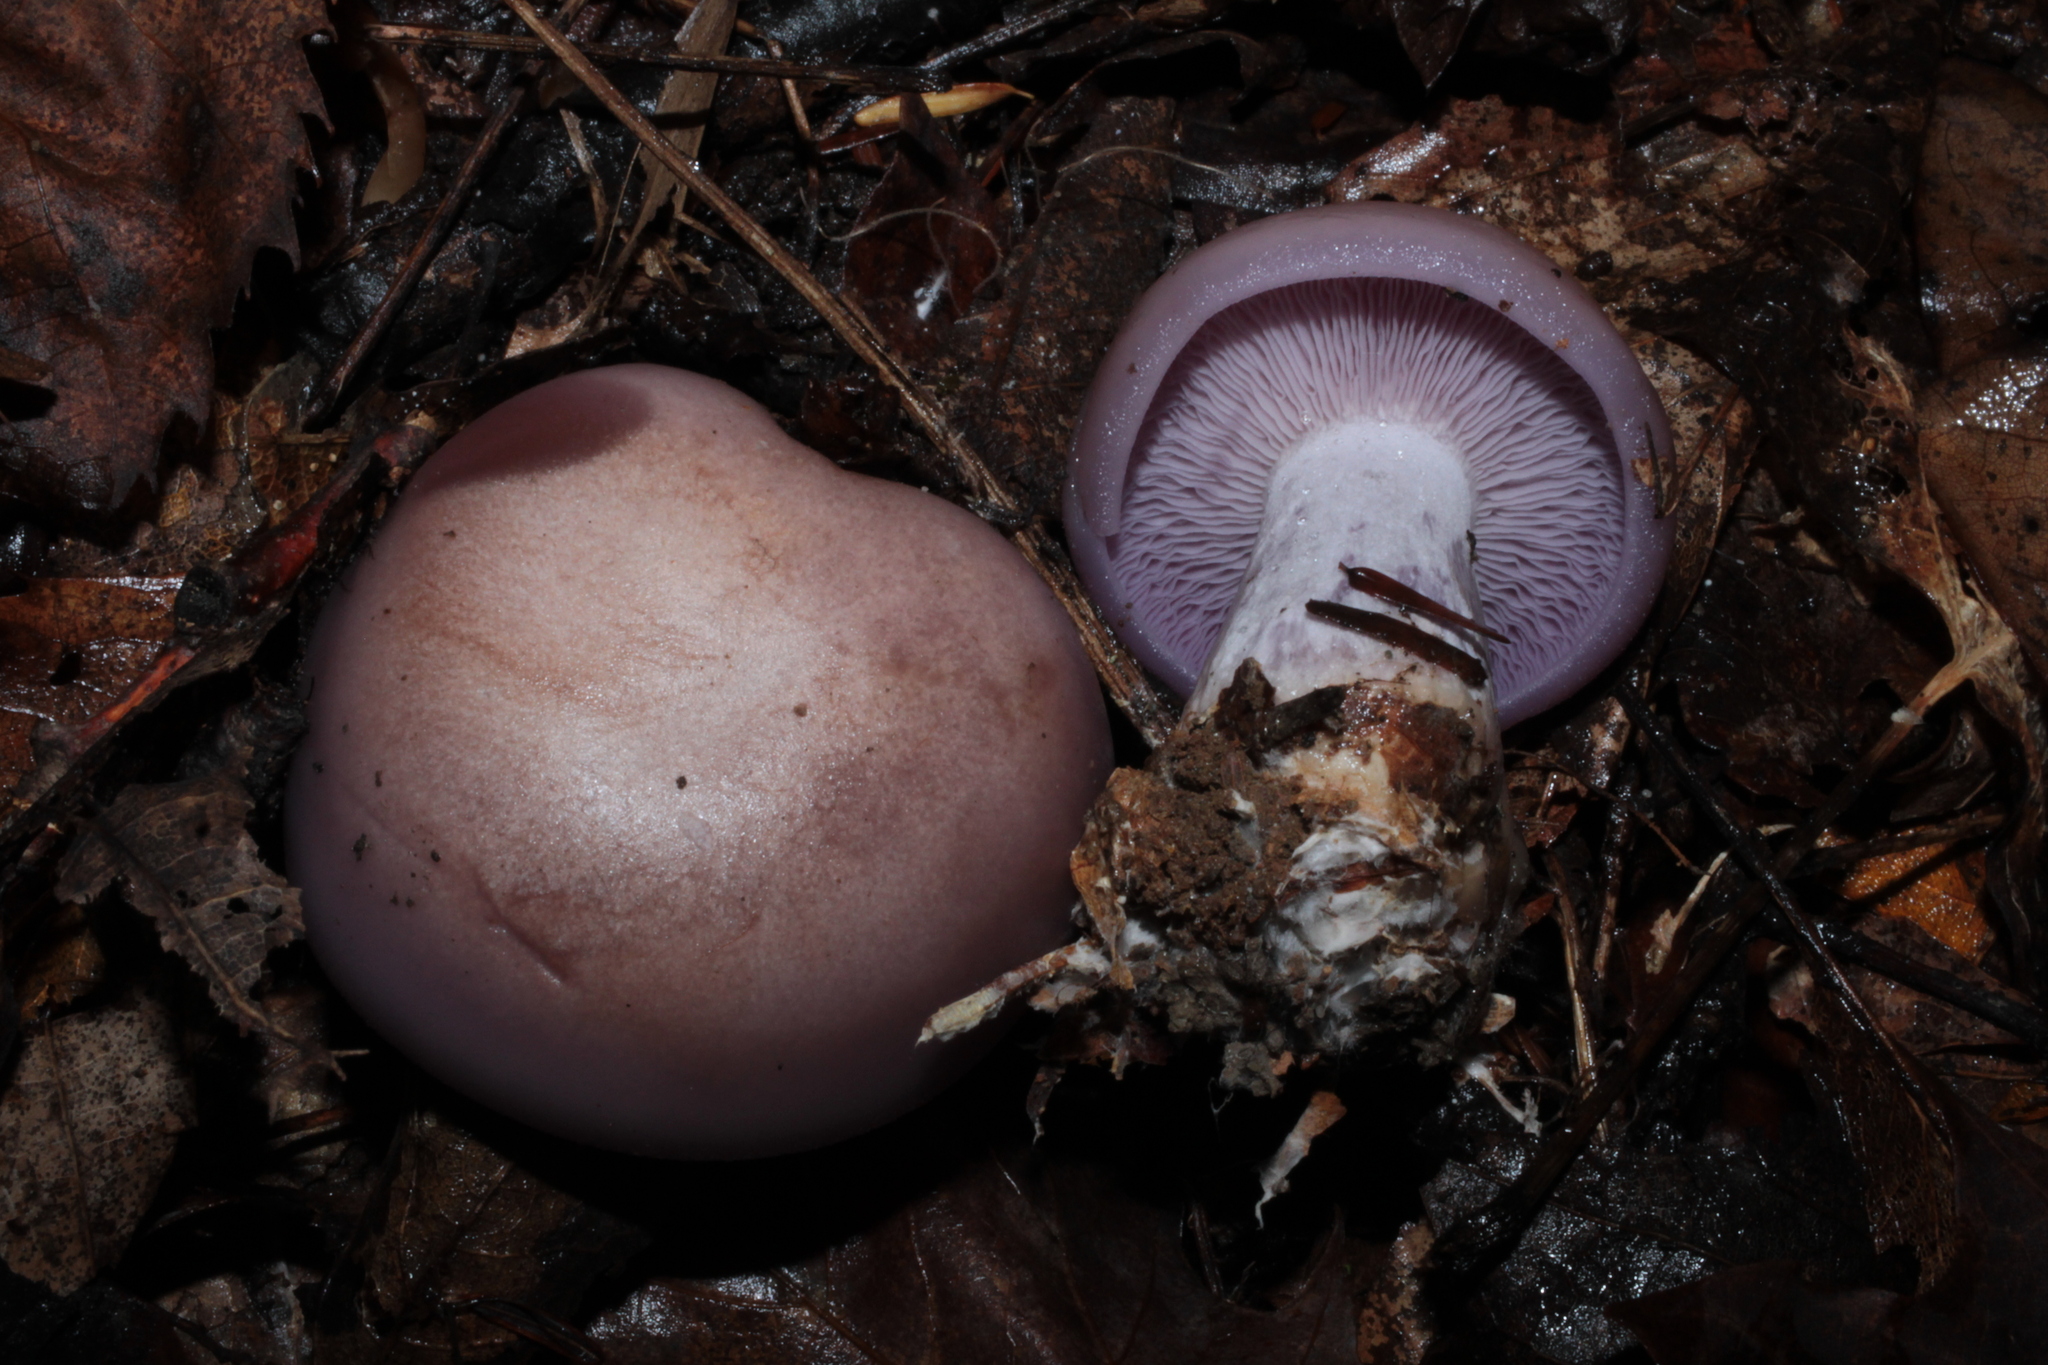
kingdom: Fungi
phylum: Basidiomycota
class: Agaricomycetes
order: Agaricales
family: Tricholomataceae
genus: Collybia
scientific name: Collybia
